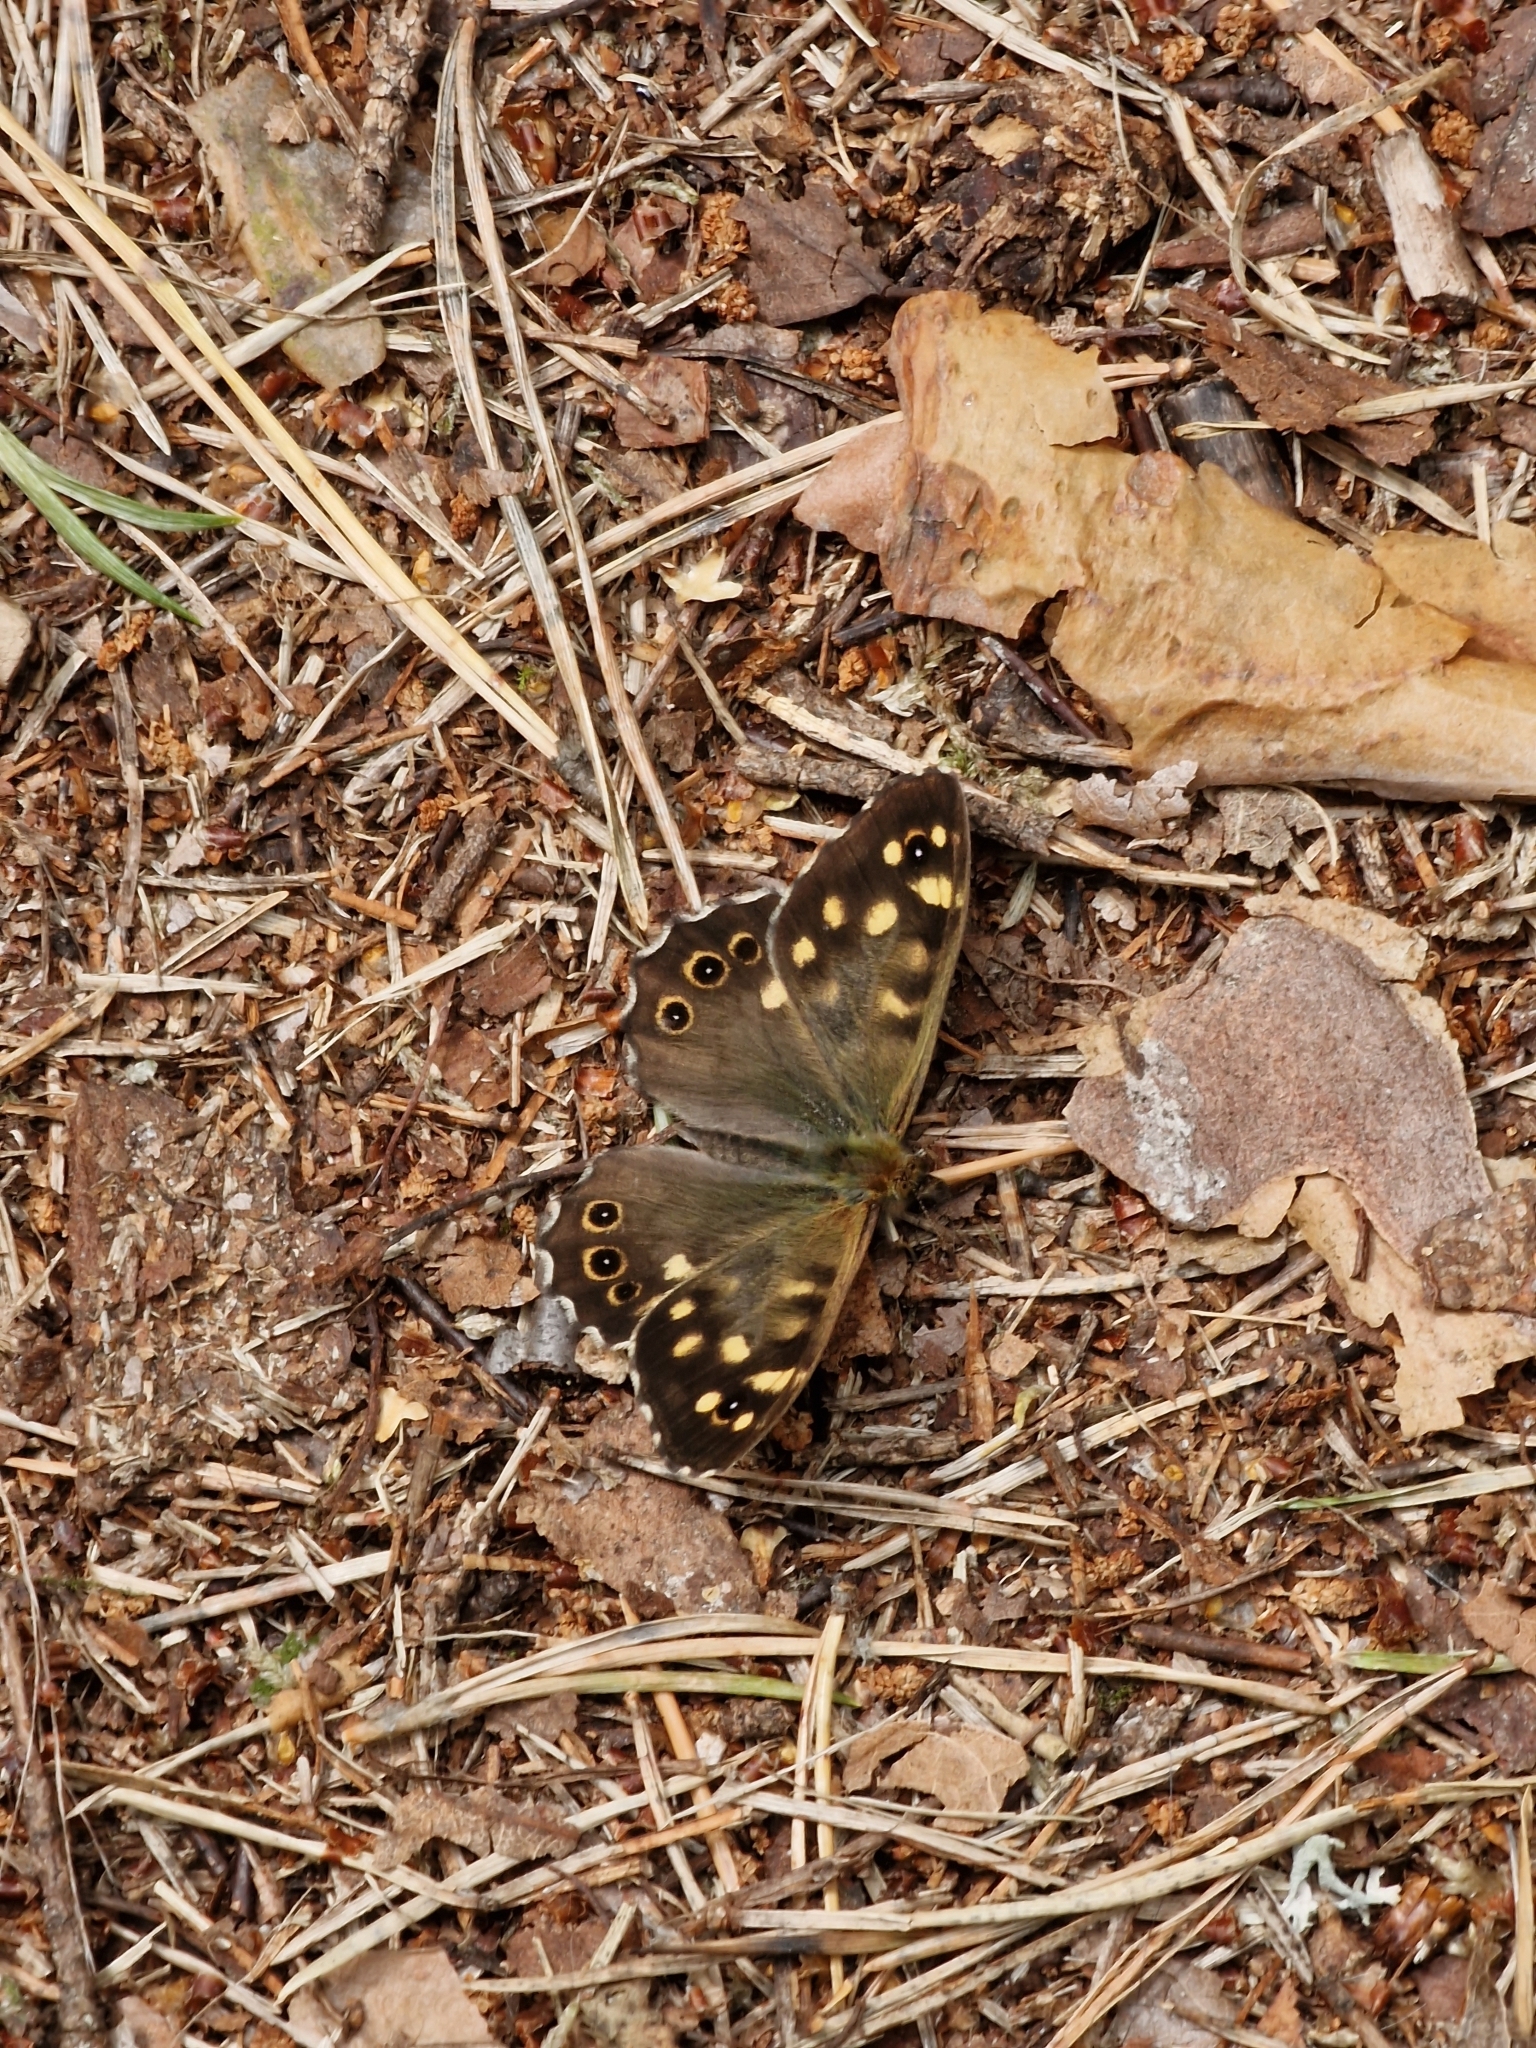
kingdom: Animalia
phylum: Arthropoda
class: Insecta
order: Lepidoptera
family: Nymphalidae
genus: Pararge
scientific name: Pararge aegeria
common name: Speckled wood
